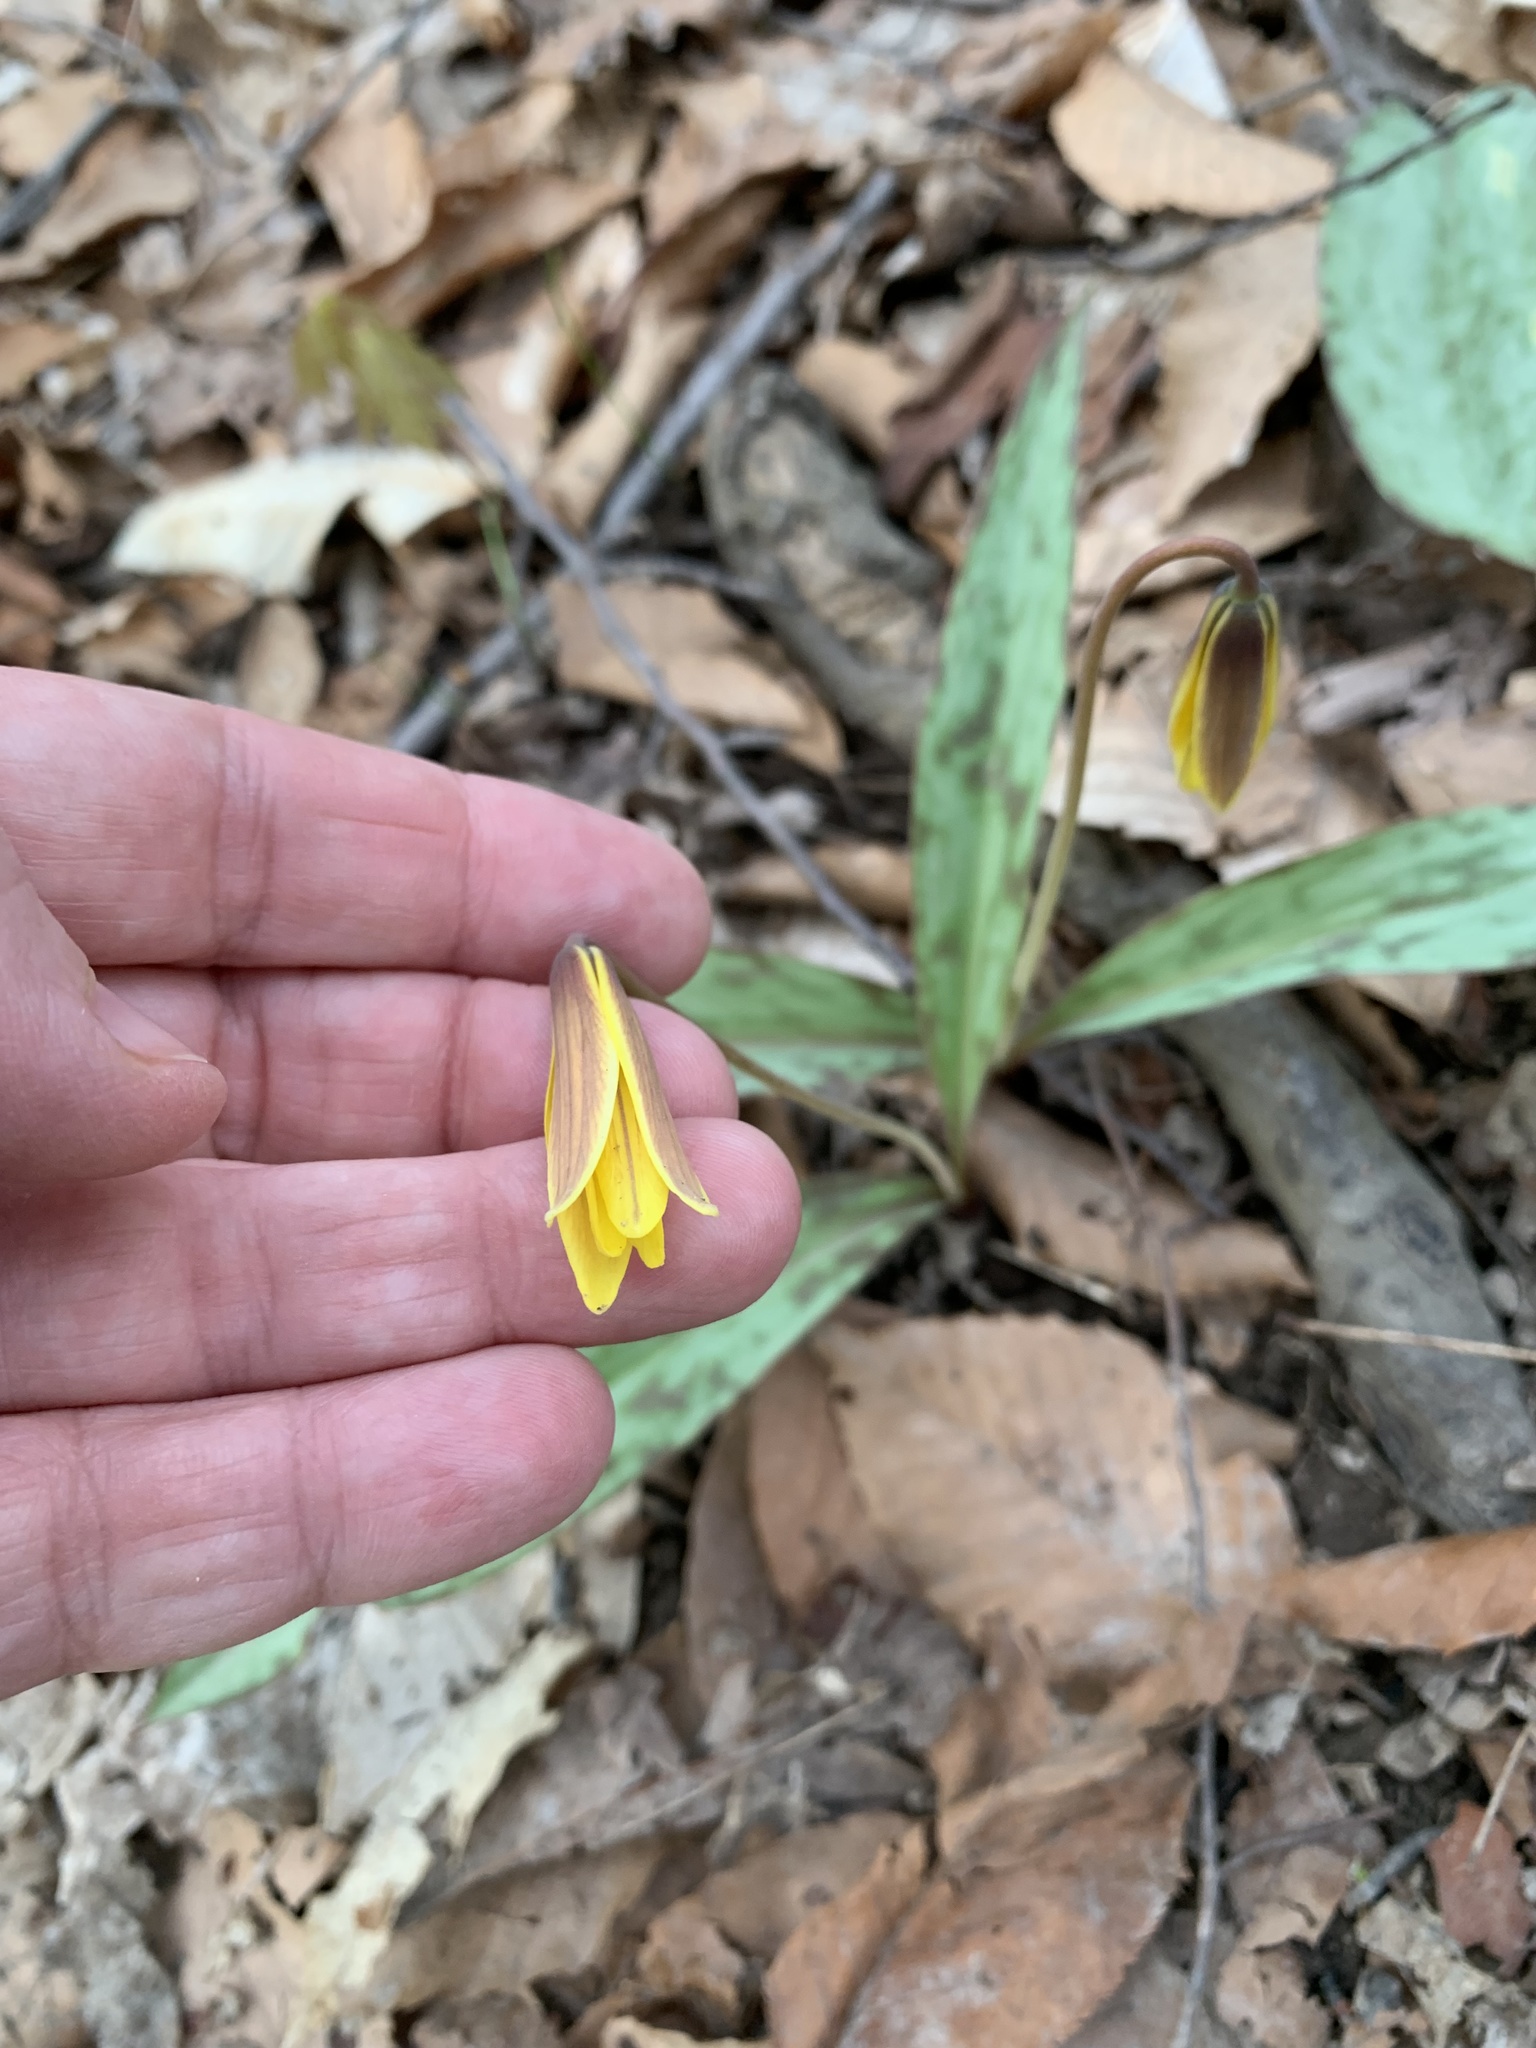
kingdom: Plantae
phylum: Tracheophyta
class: Liliopsida
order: Liliales
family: Liliaceae
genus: Erythronium
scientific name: Erythronium americanum
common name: Yellow adder's-tongue
